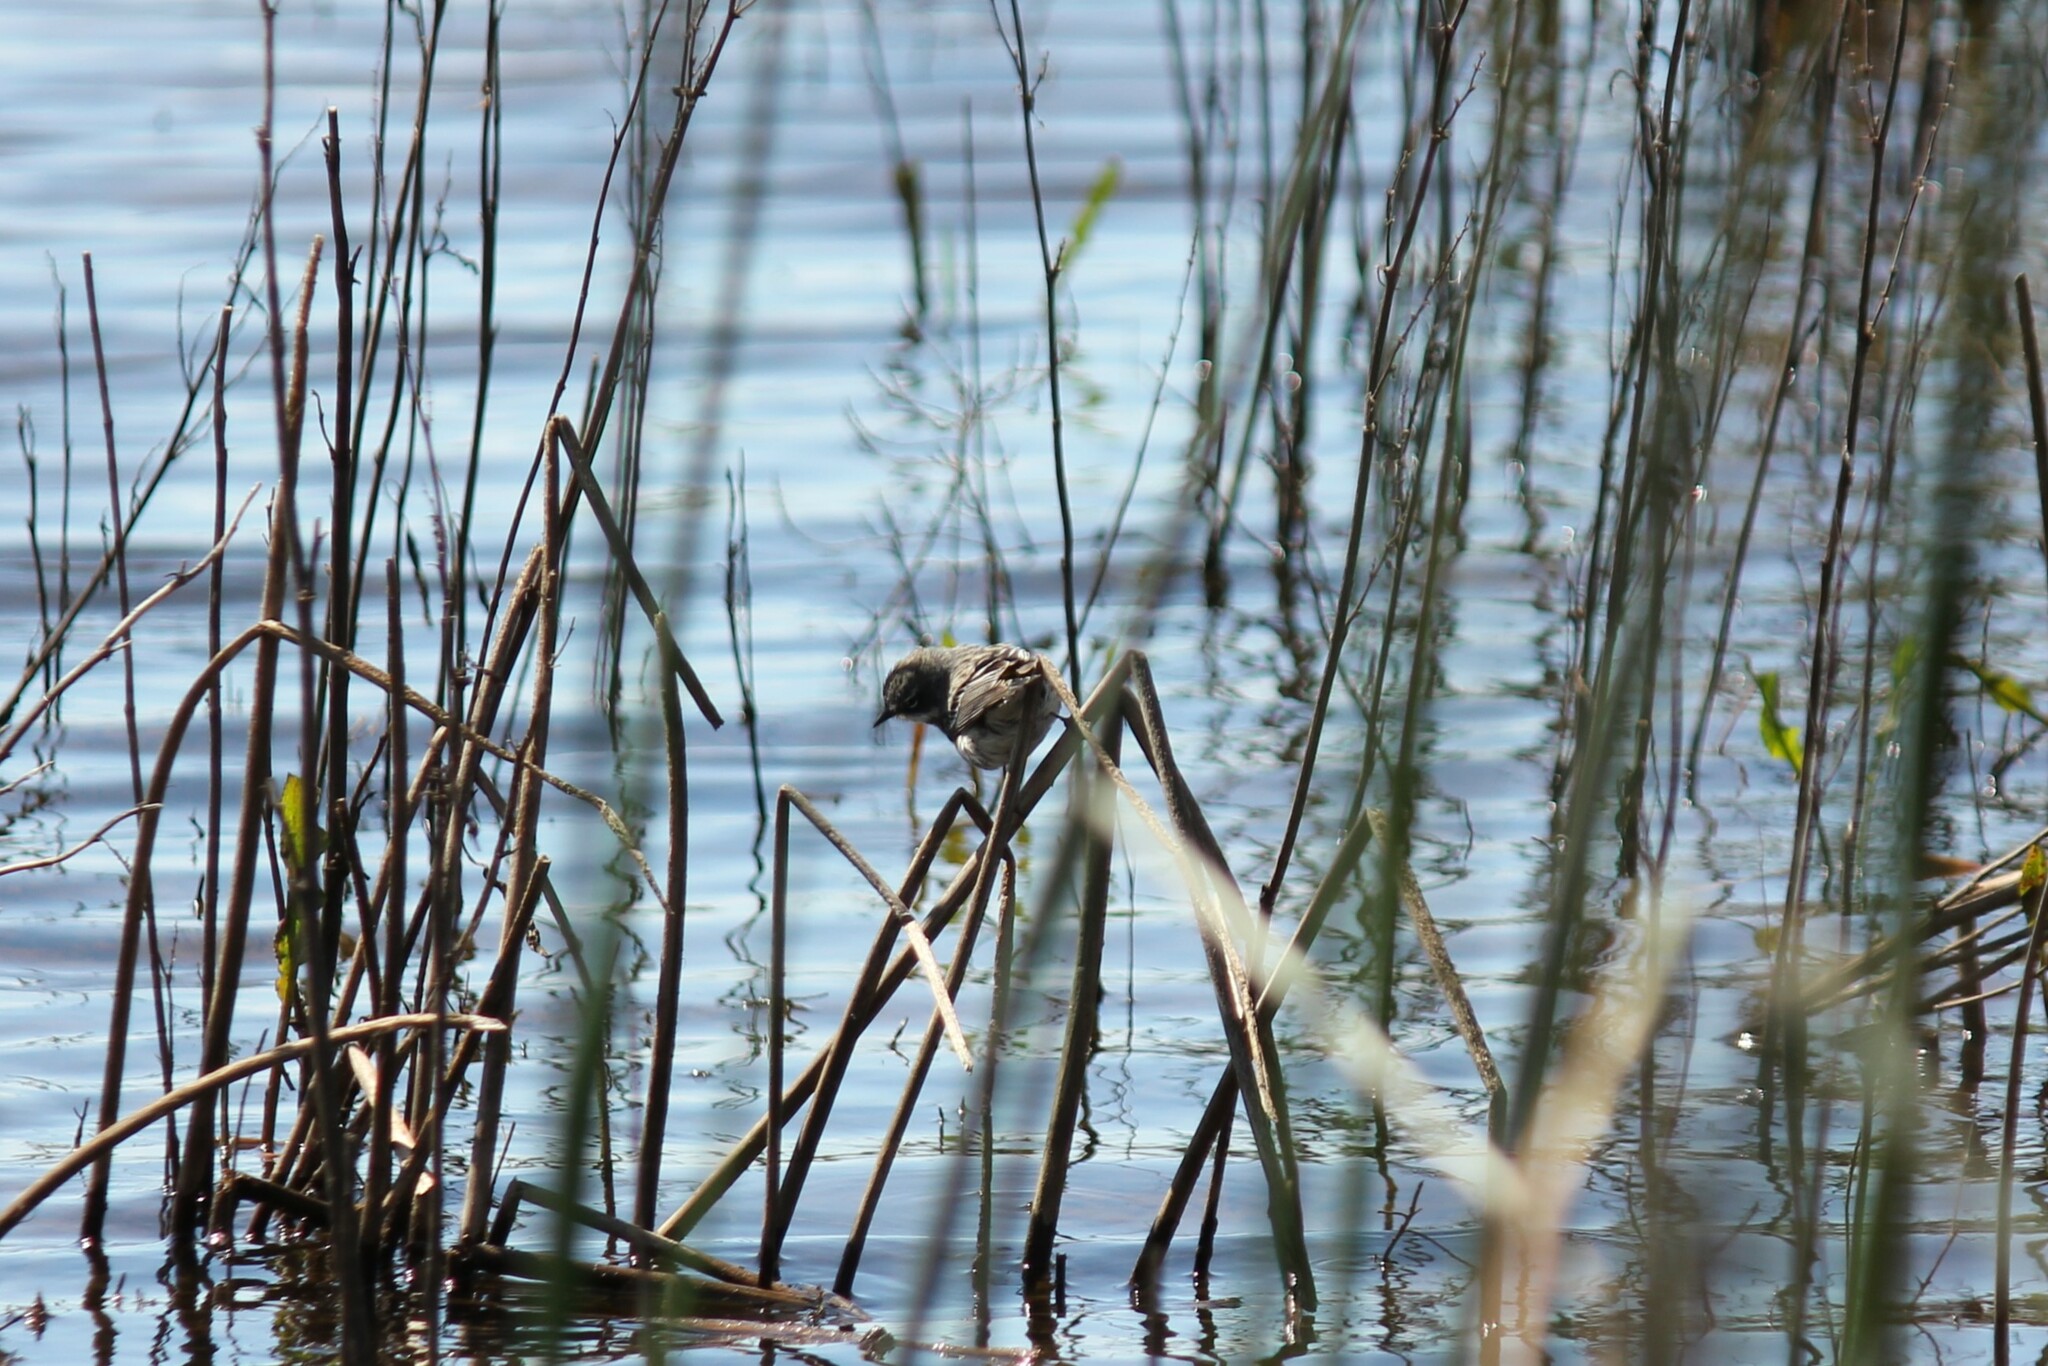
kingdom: Animalia
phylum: Chordata
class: Aves
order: Passeriformes
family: Parulidae
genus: Setophaga
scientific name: Setophaga coronata
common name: Myrtle warbler
